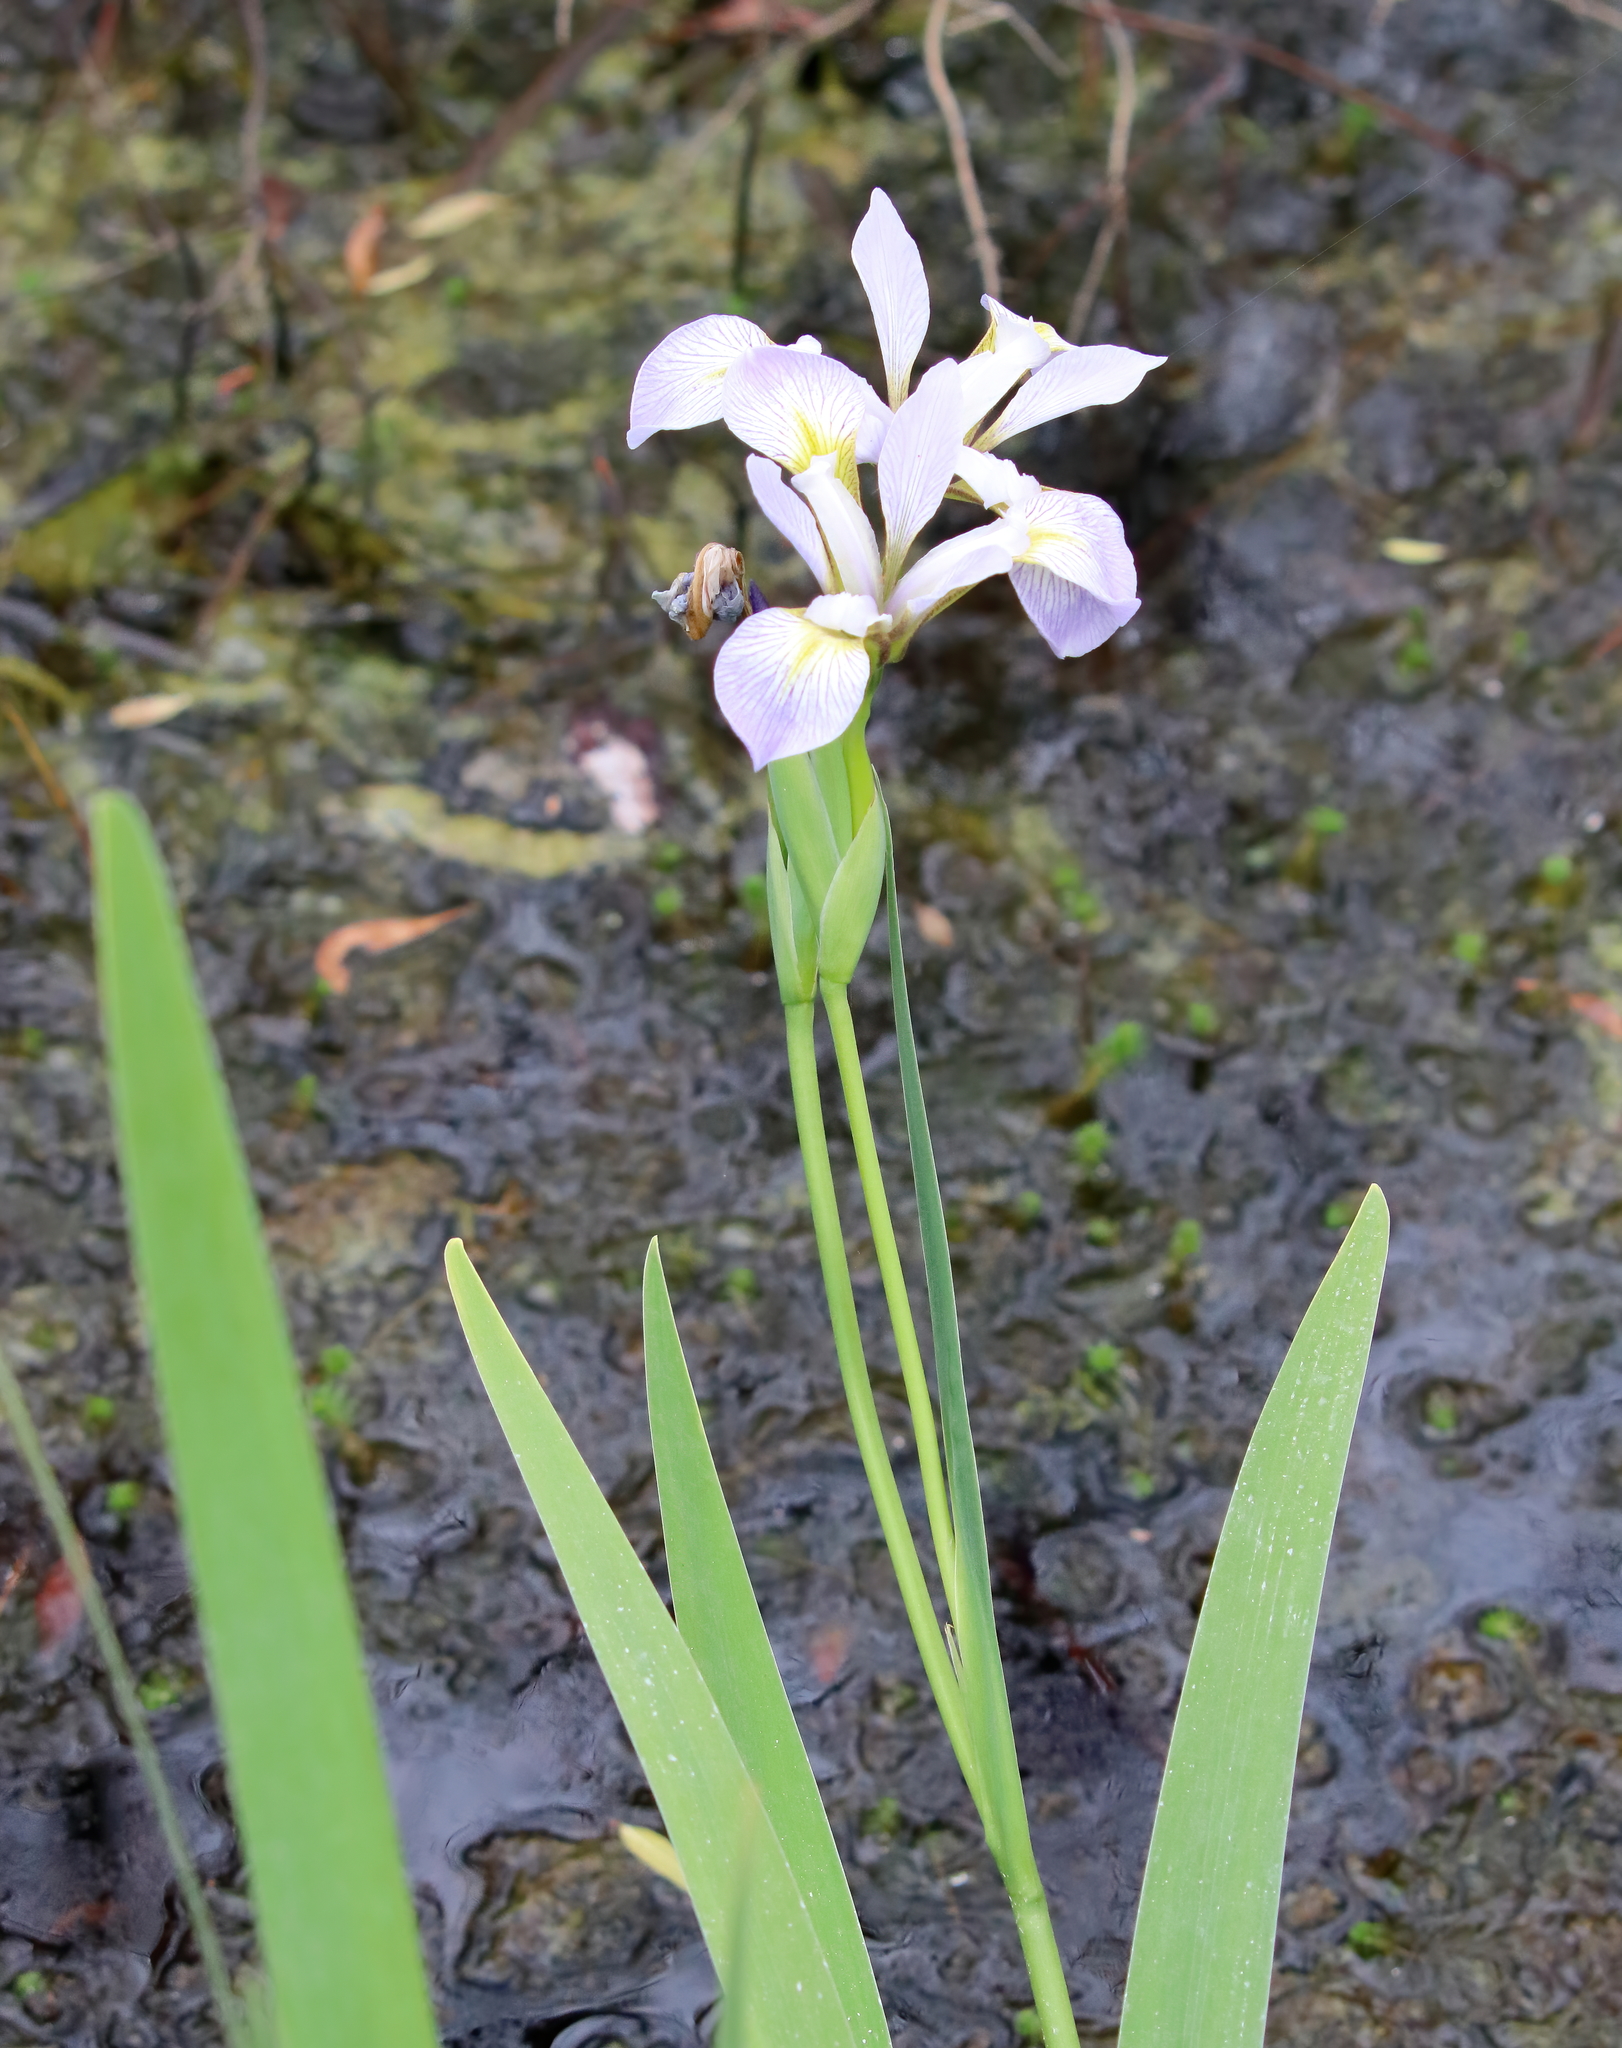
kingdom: Plantae
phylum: Tracheophyta
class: Liliopsida
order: Asparagales
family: Iridaceae
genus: Iris
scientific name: Iris virginica
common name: Southern blue flag
